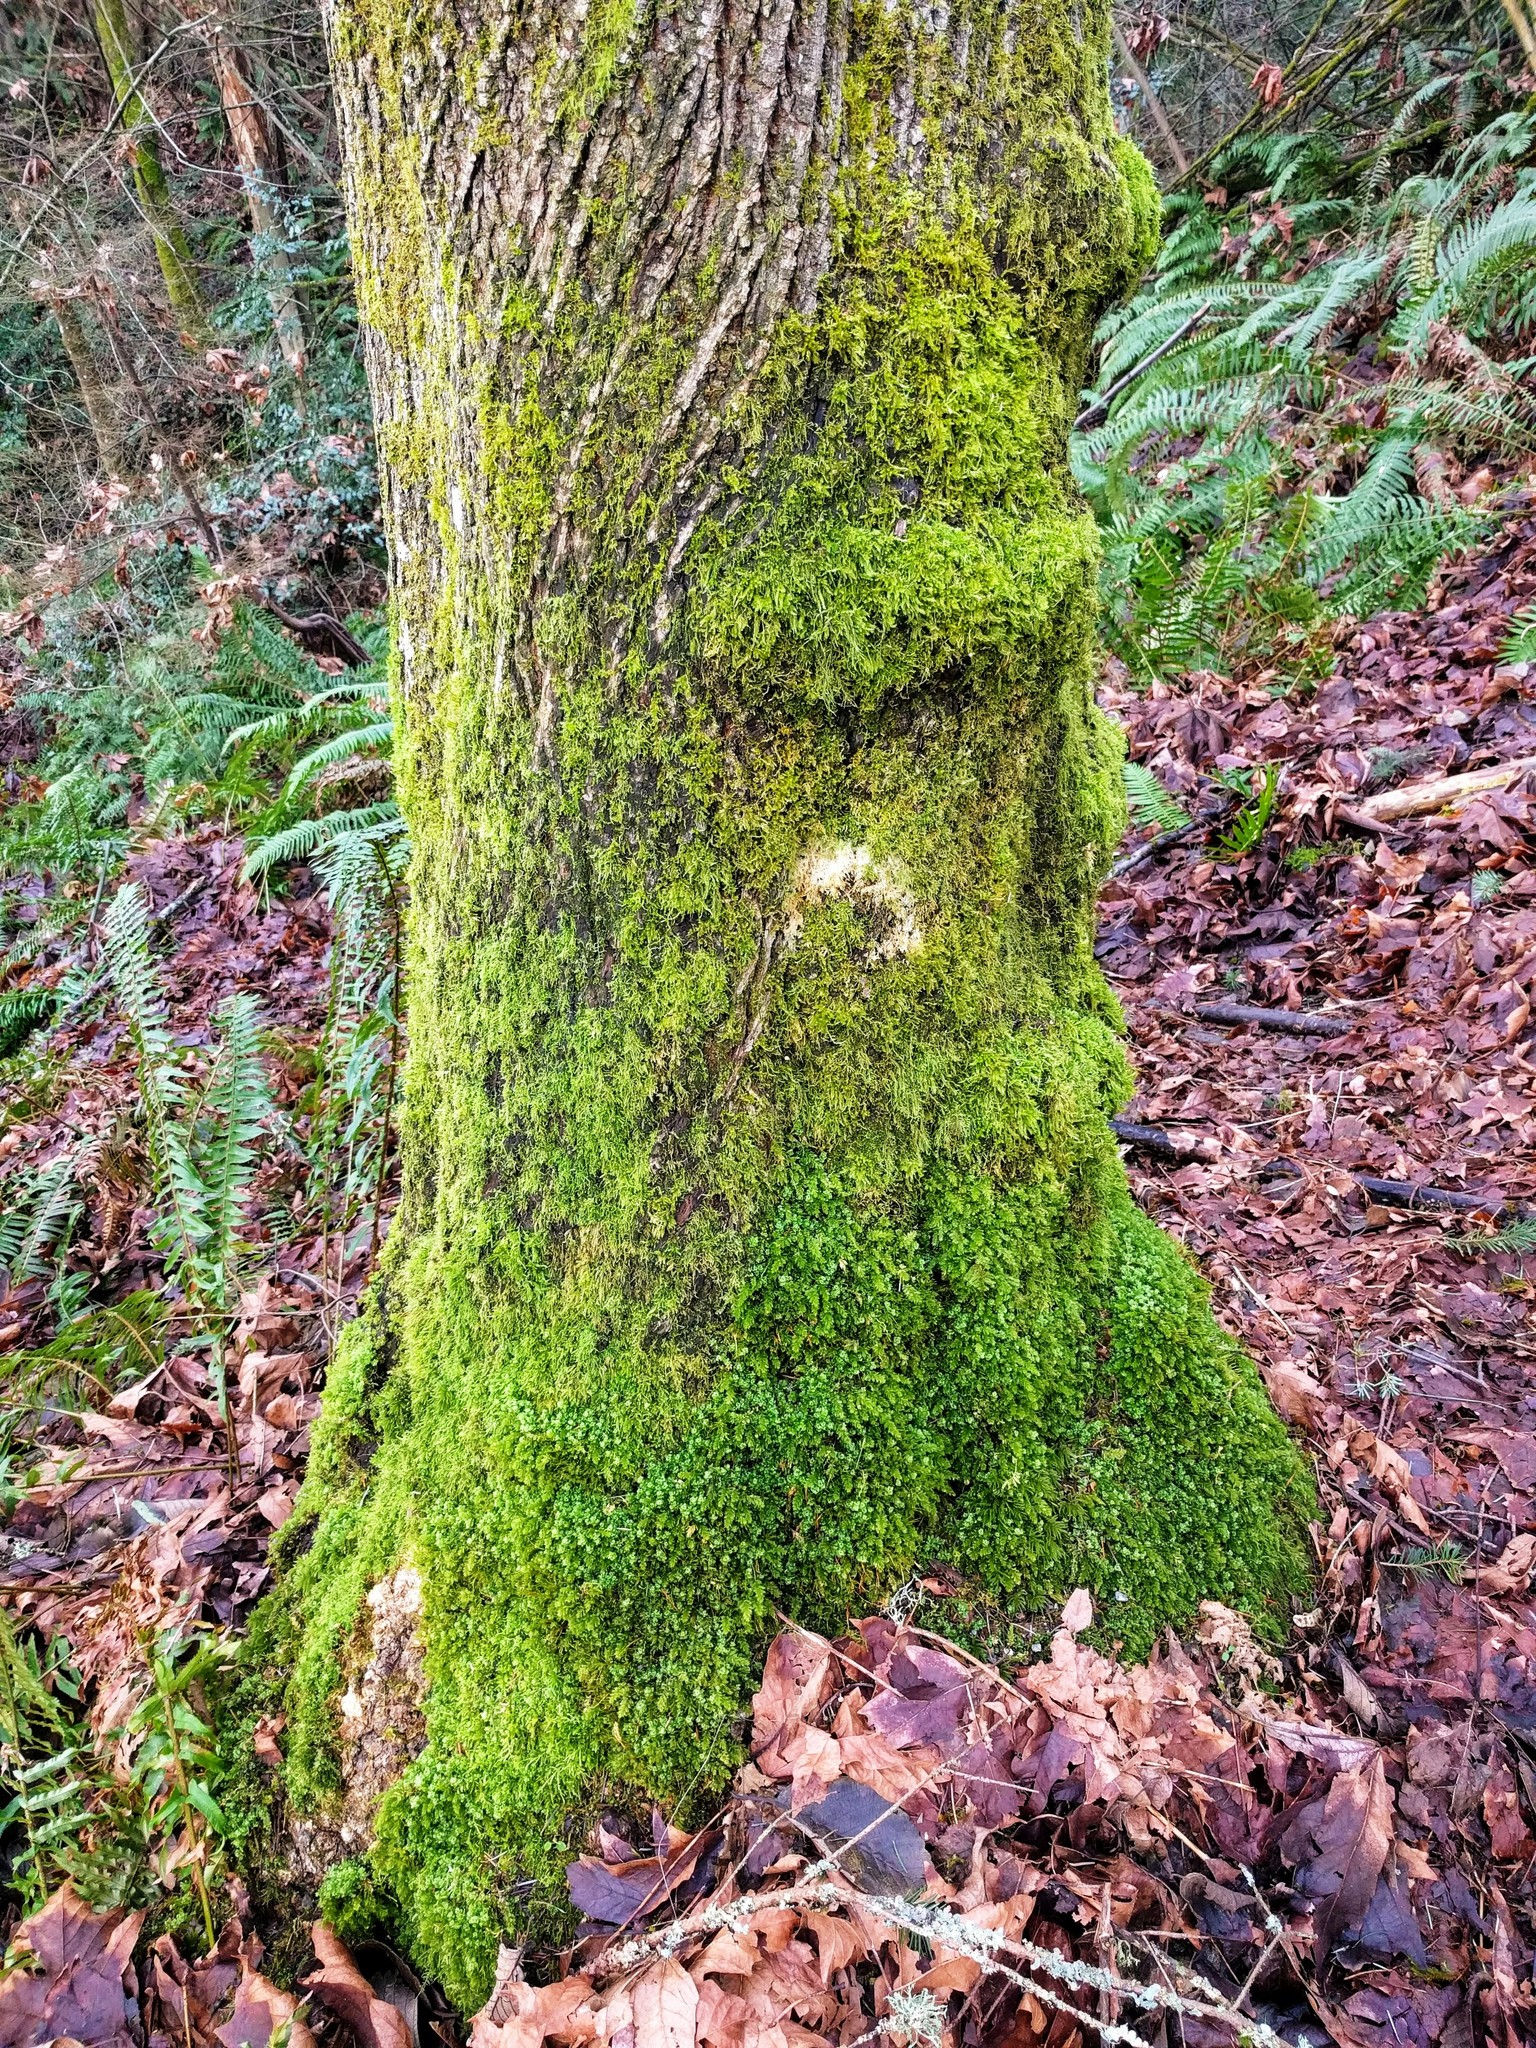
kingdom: Plantae
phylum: Bryophyta
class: Bryopsida
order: Bryales
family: Mniaceae
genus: Plagiomnium
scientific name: Plagiomnium insigne
